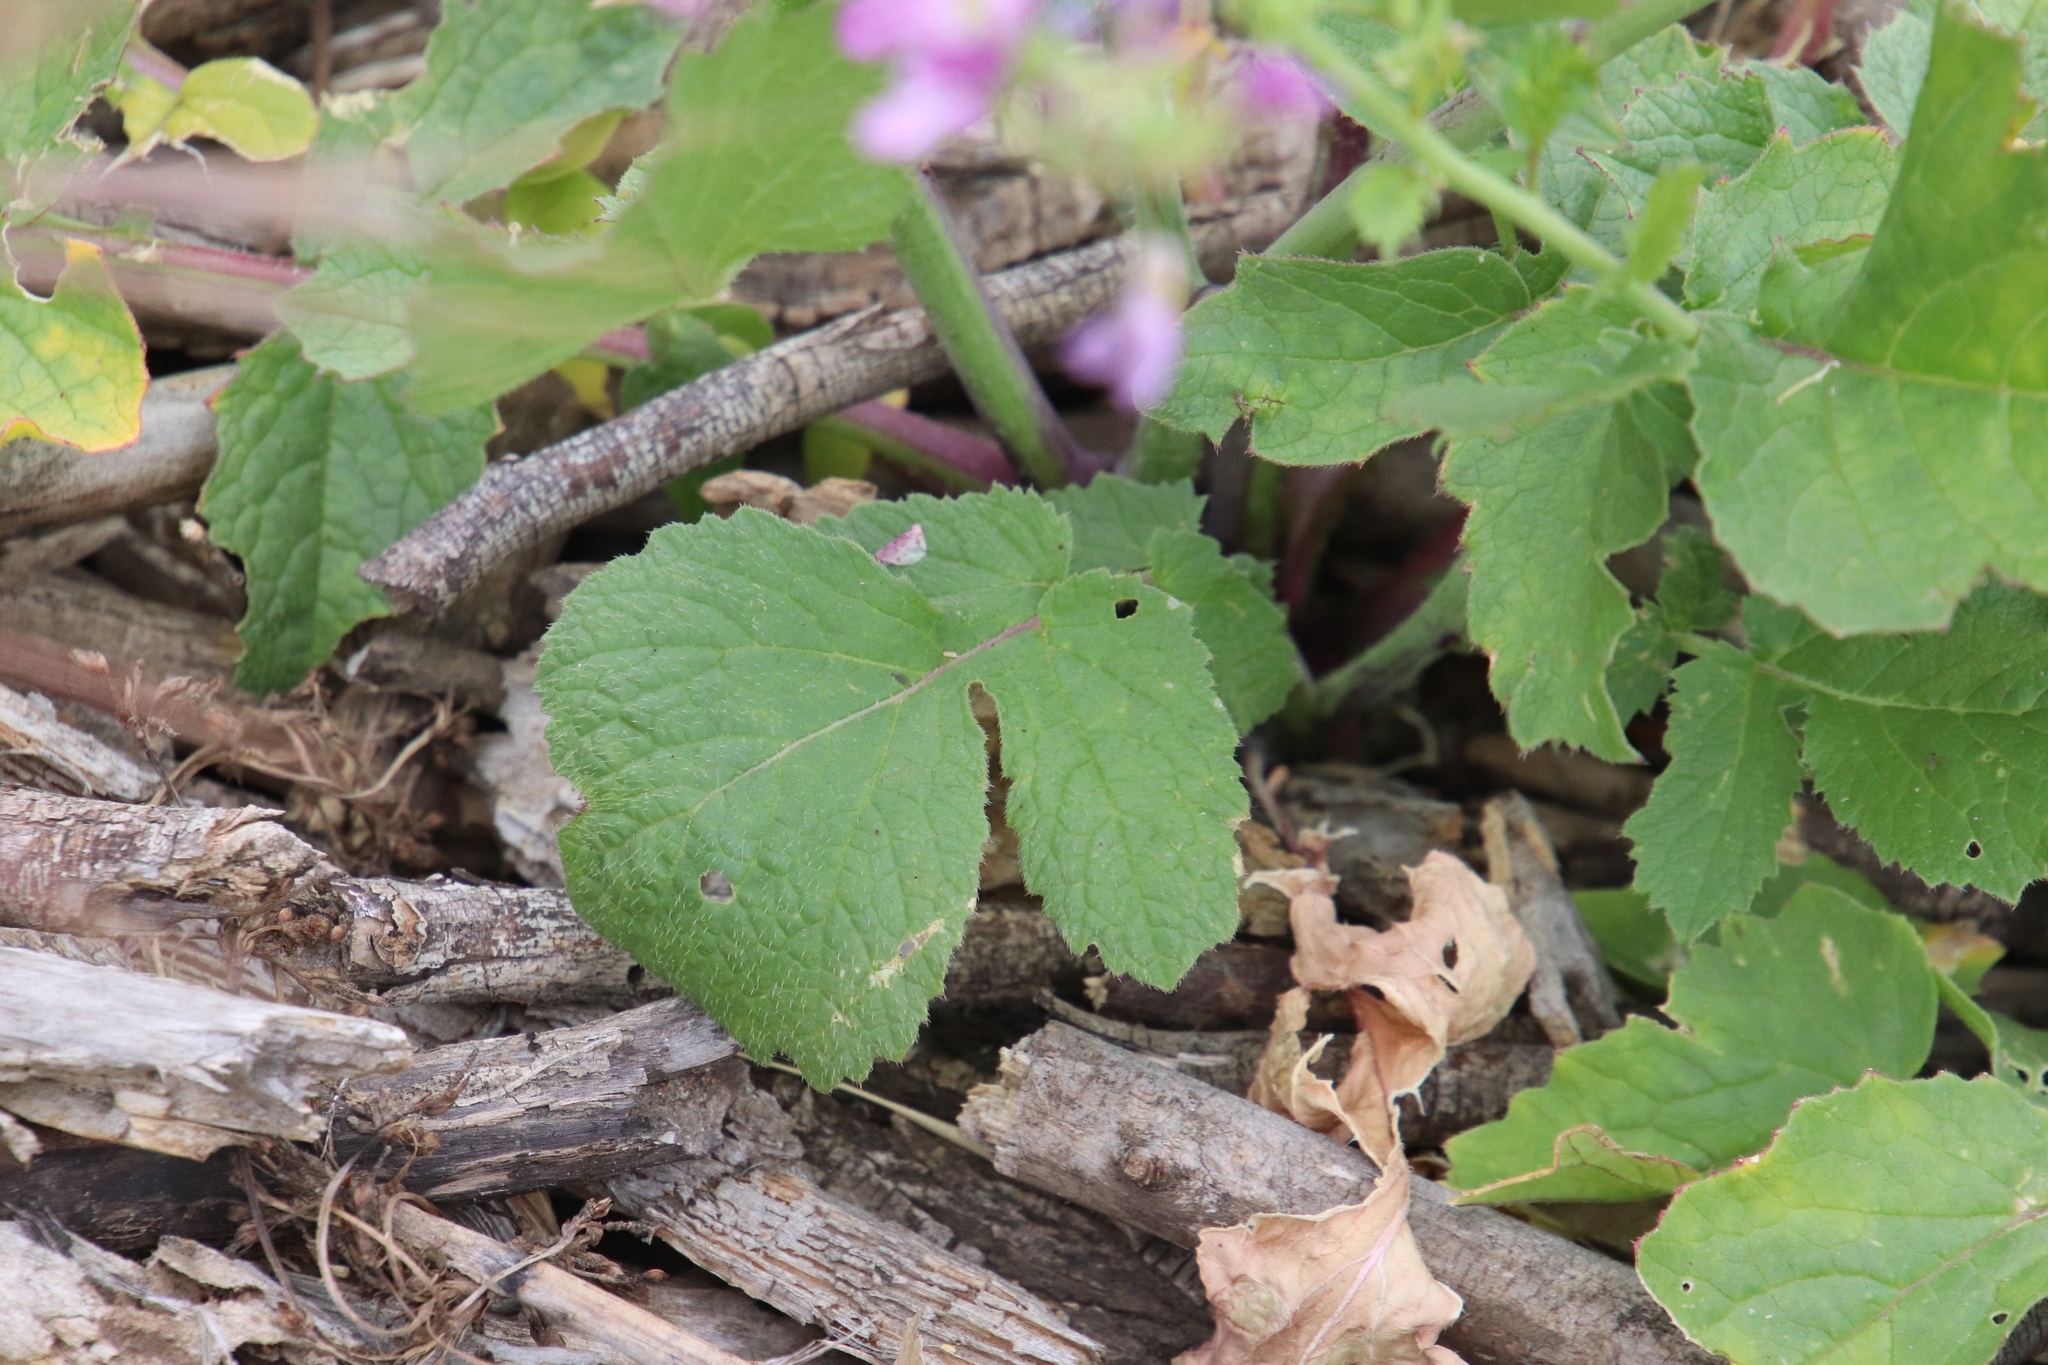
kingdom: Plantae
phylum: Tracheophyta
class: Magnoliopsida
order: Brassicales
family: Brassicaceae
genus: Raphanus
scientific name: Raphanus sativus
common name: Cultivated radish
